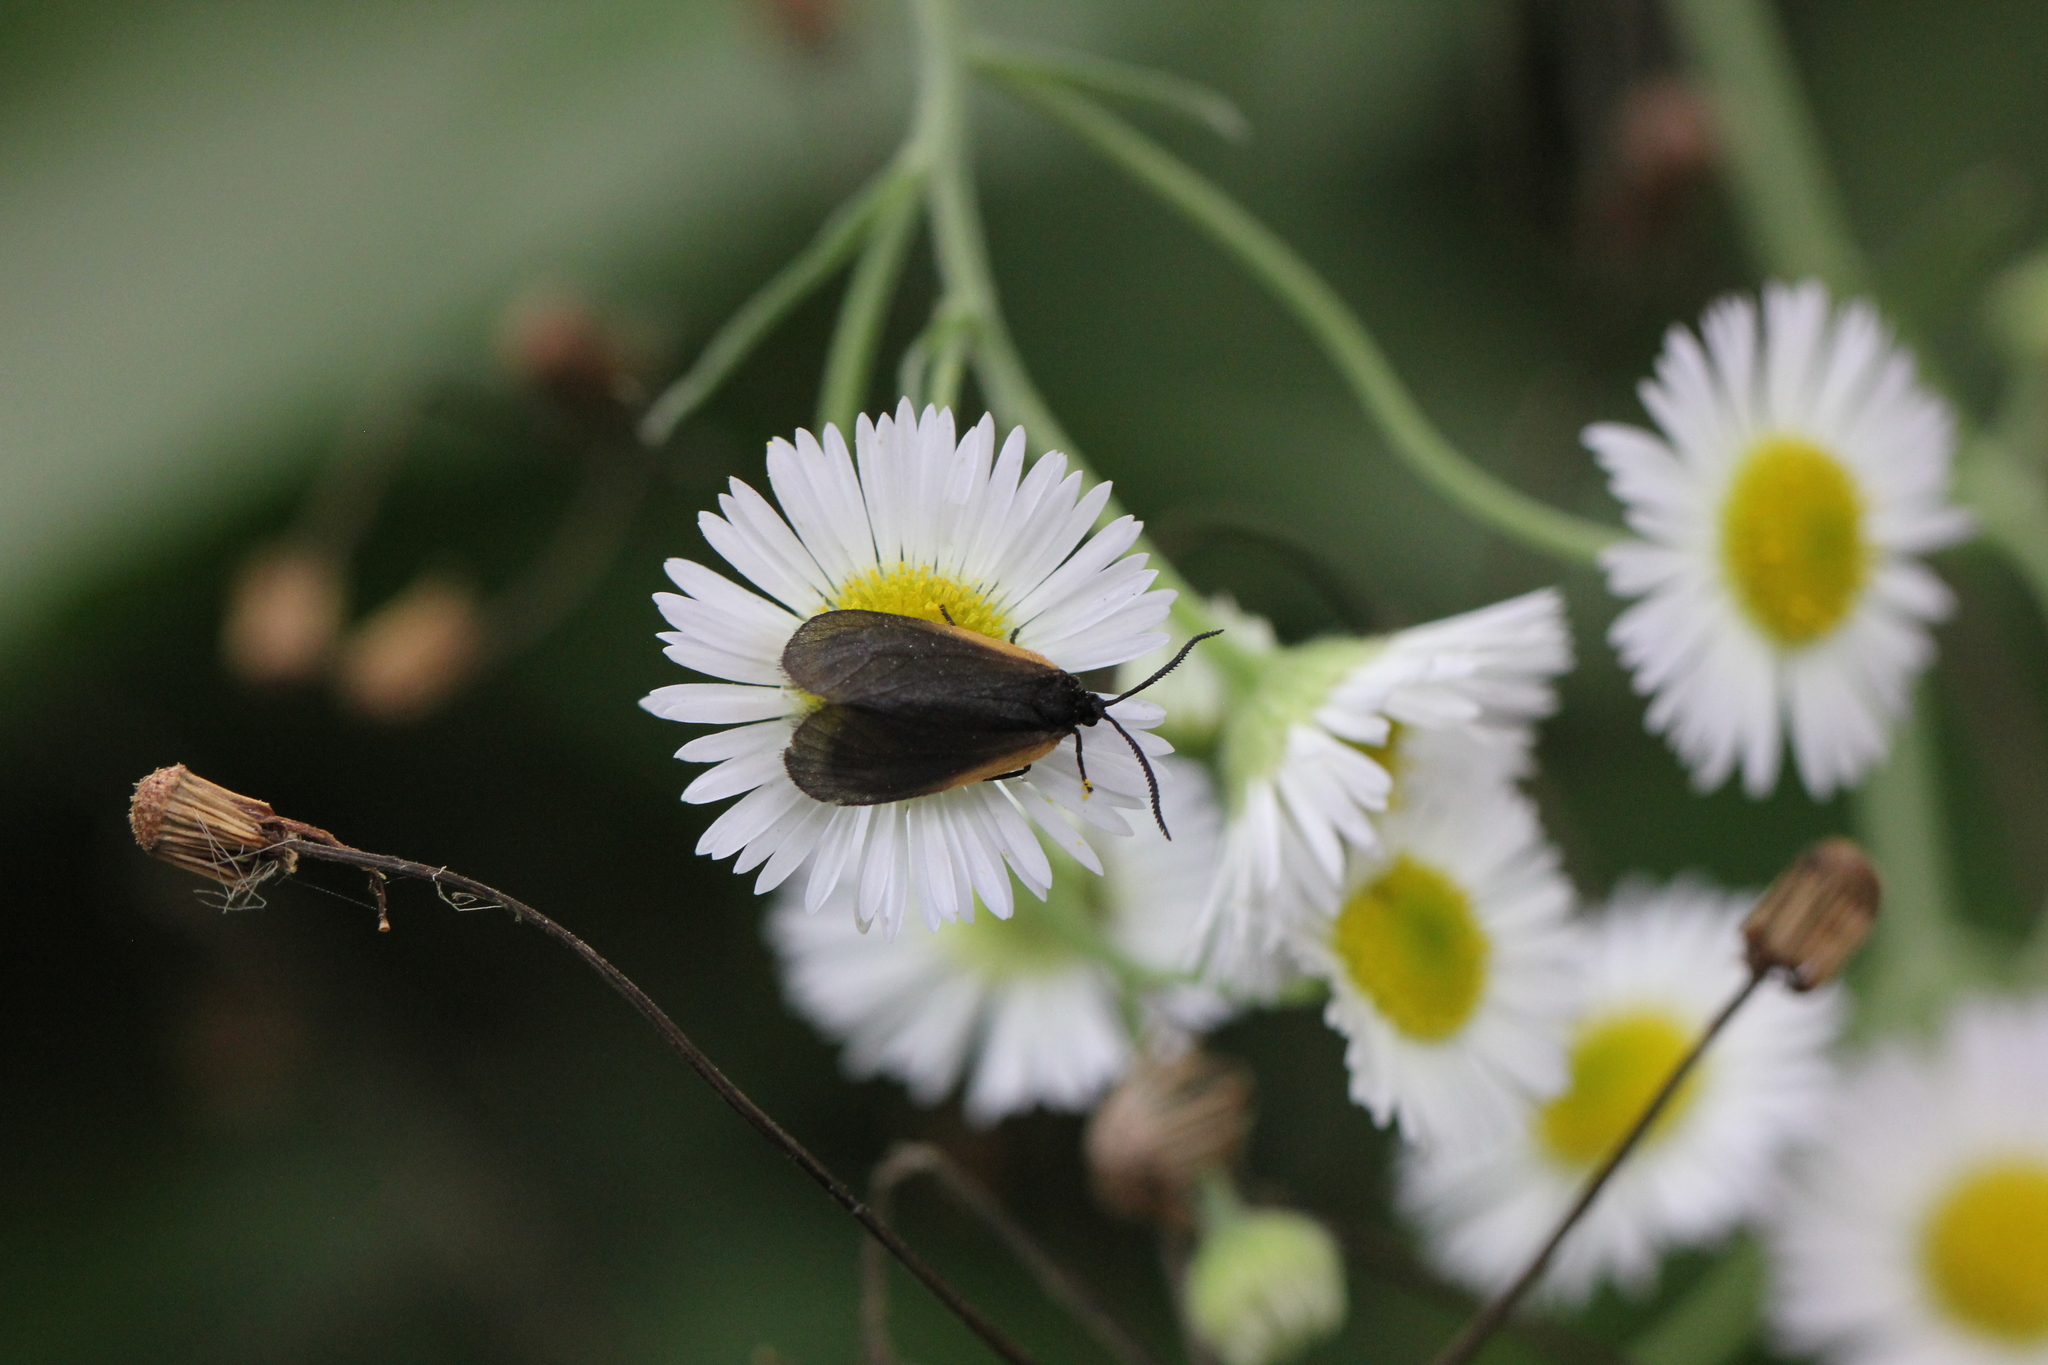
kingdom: Animalia
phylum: Arthropoda
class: Insecta
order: Lepidoptera
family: Zygaenidae
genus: Malthaca
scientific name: Malthaca dimidiata
